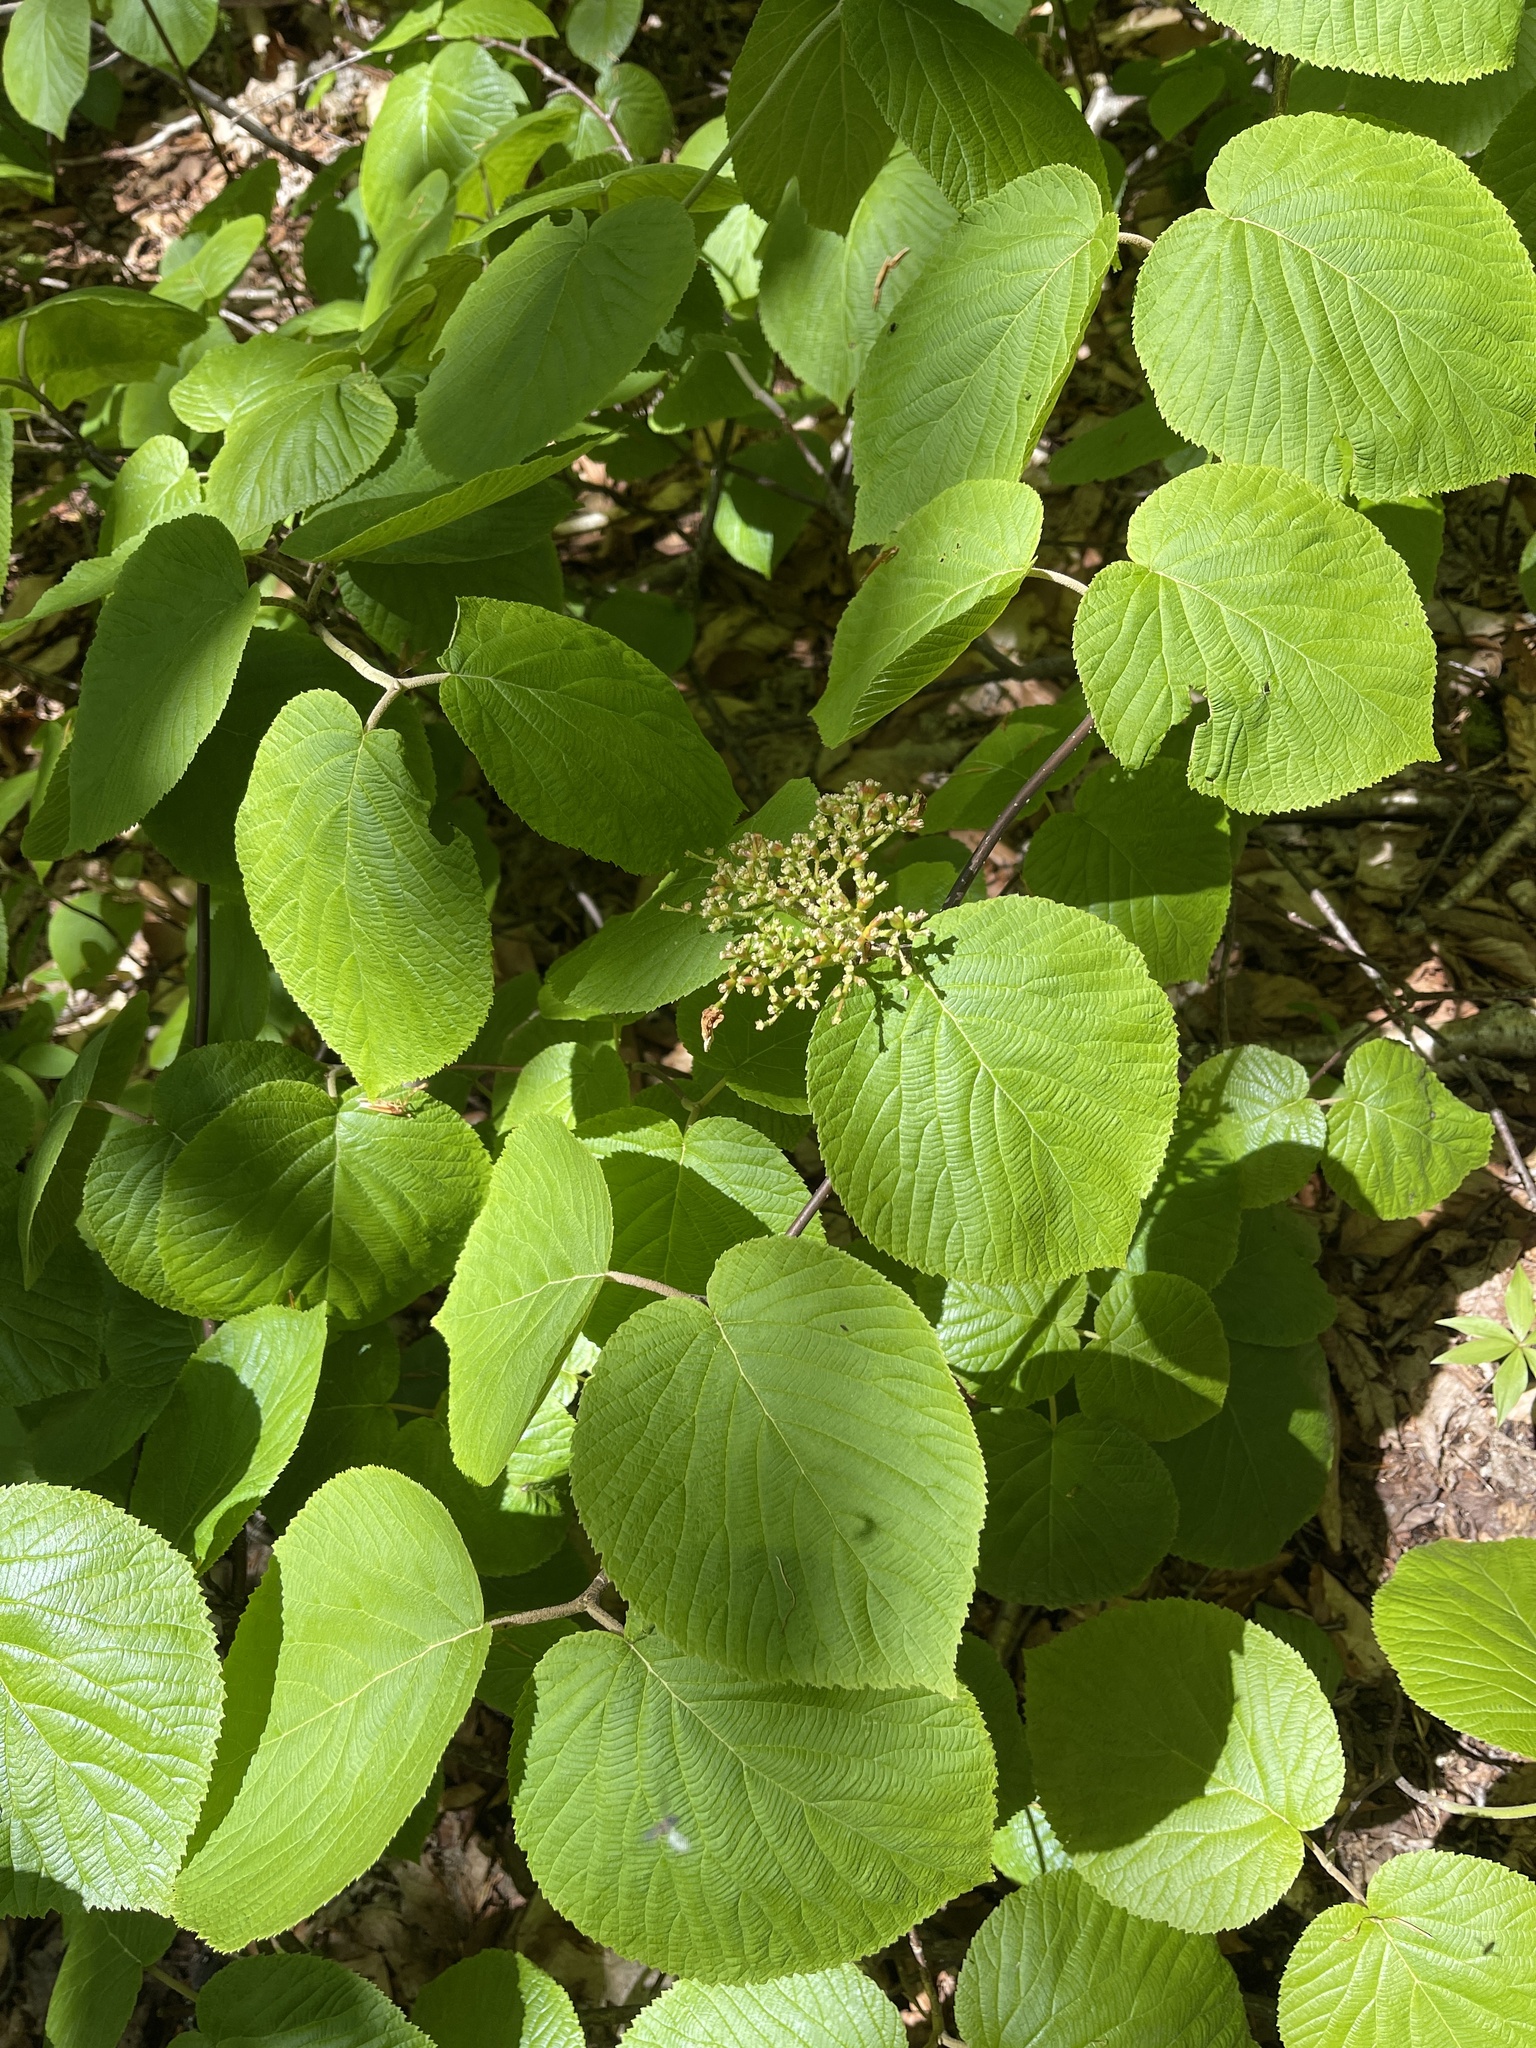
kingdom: Plantae
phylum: Tracheophyta
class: Magnoliopsida
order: Dipsacales
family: Viburnaceae
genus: Viburnum
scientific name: Viburnum lantanoides
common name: Hobblebush
